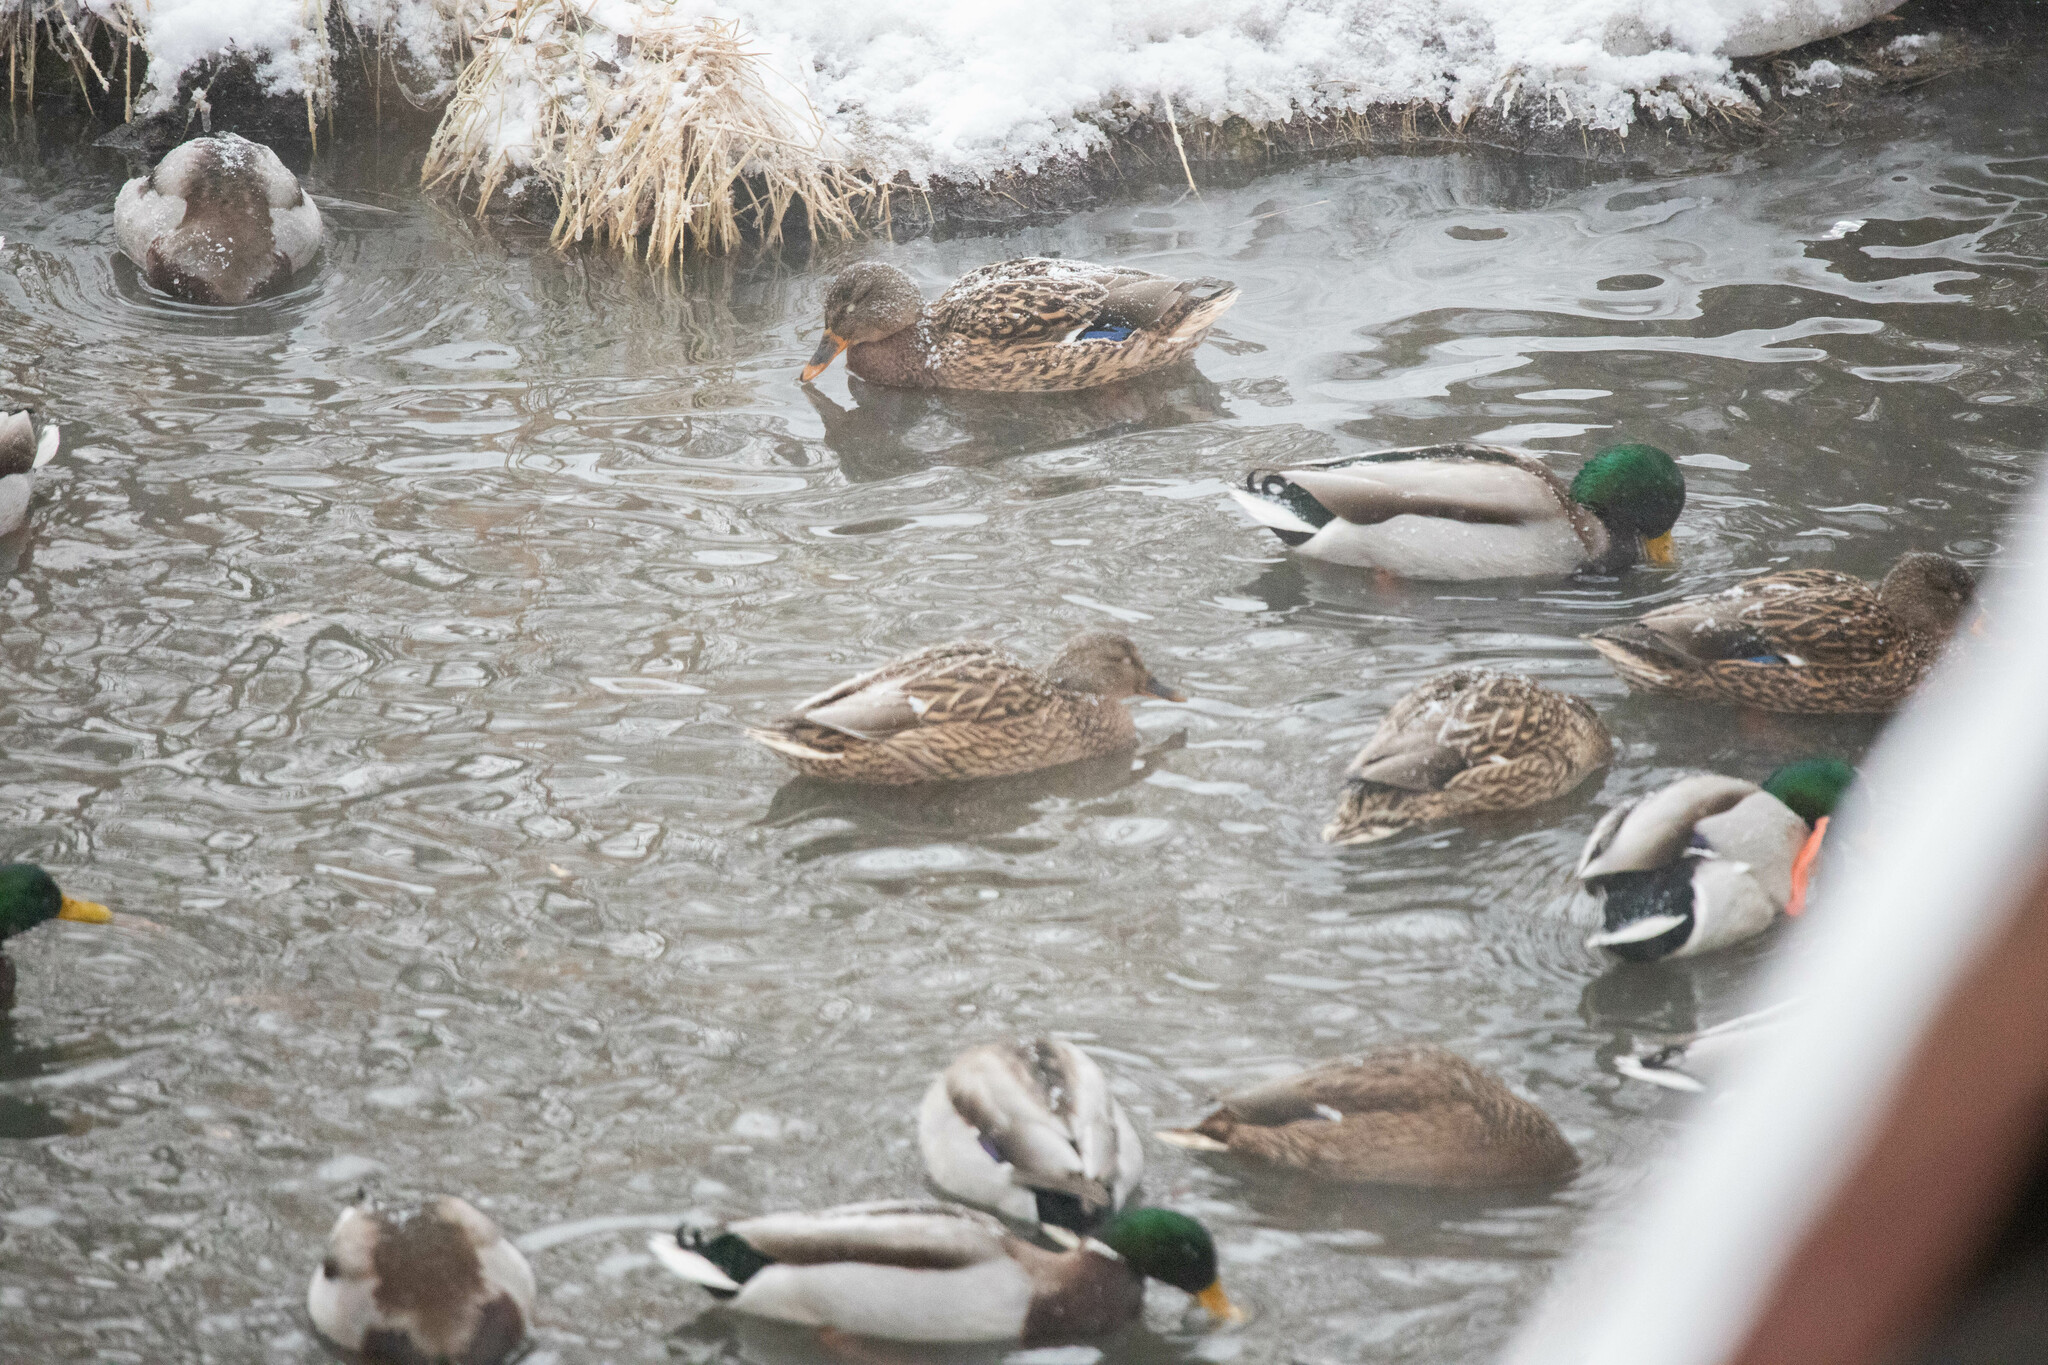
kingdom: Animalia
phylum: Chordata
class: Aves
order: Anseriformes
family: Anatidae
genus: Anas
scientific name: Anas platyrhynchos
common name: Mallard
